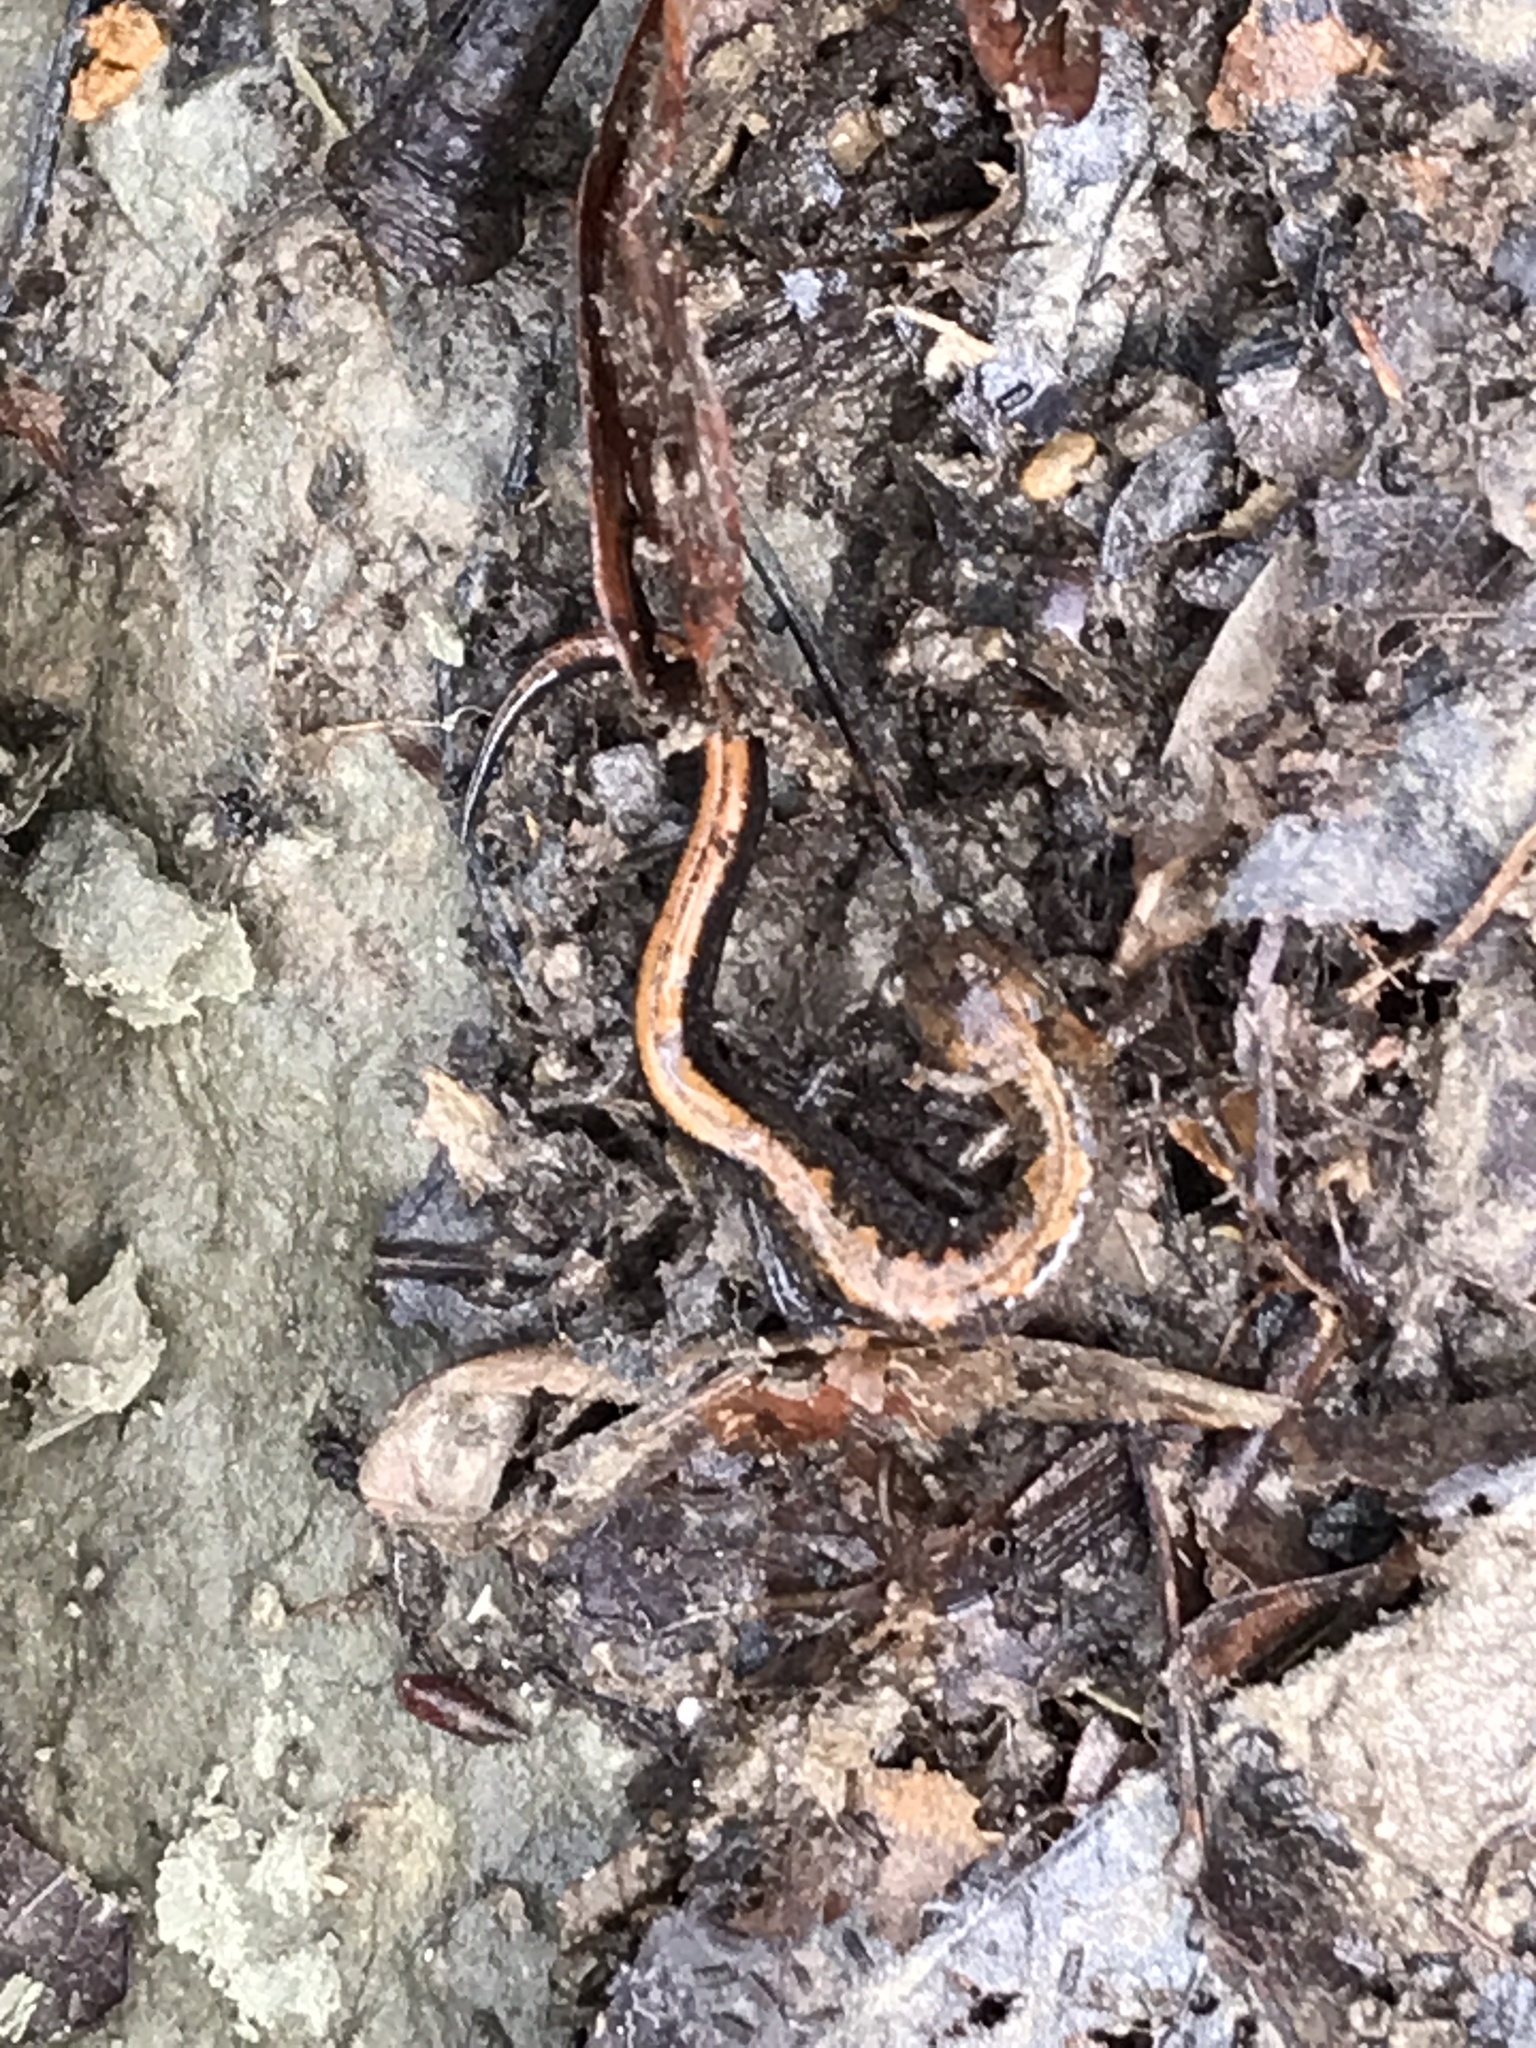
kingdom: Animalia
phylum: Chordata
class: Amphibia
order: Caudata
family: Plethodontidae
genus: Plethodon
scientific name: Plethodon dorsalis
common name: Northern zigzag salamander
